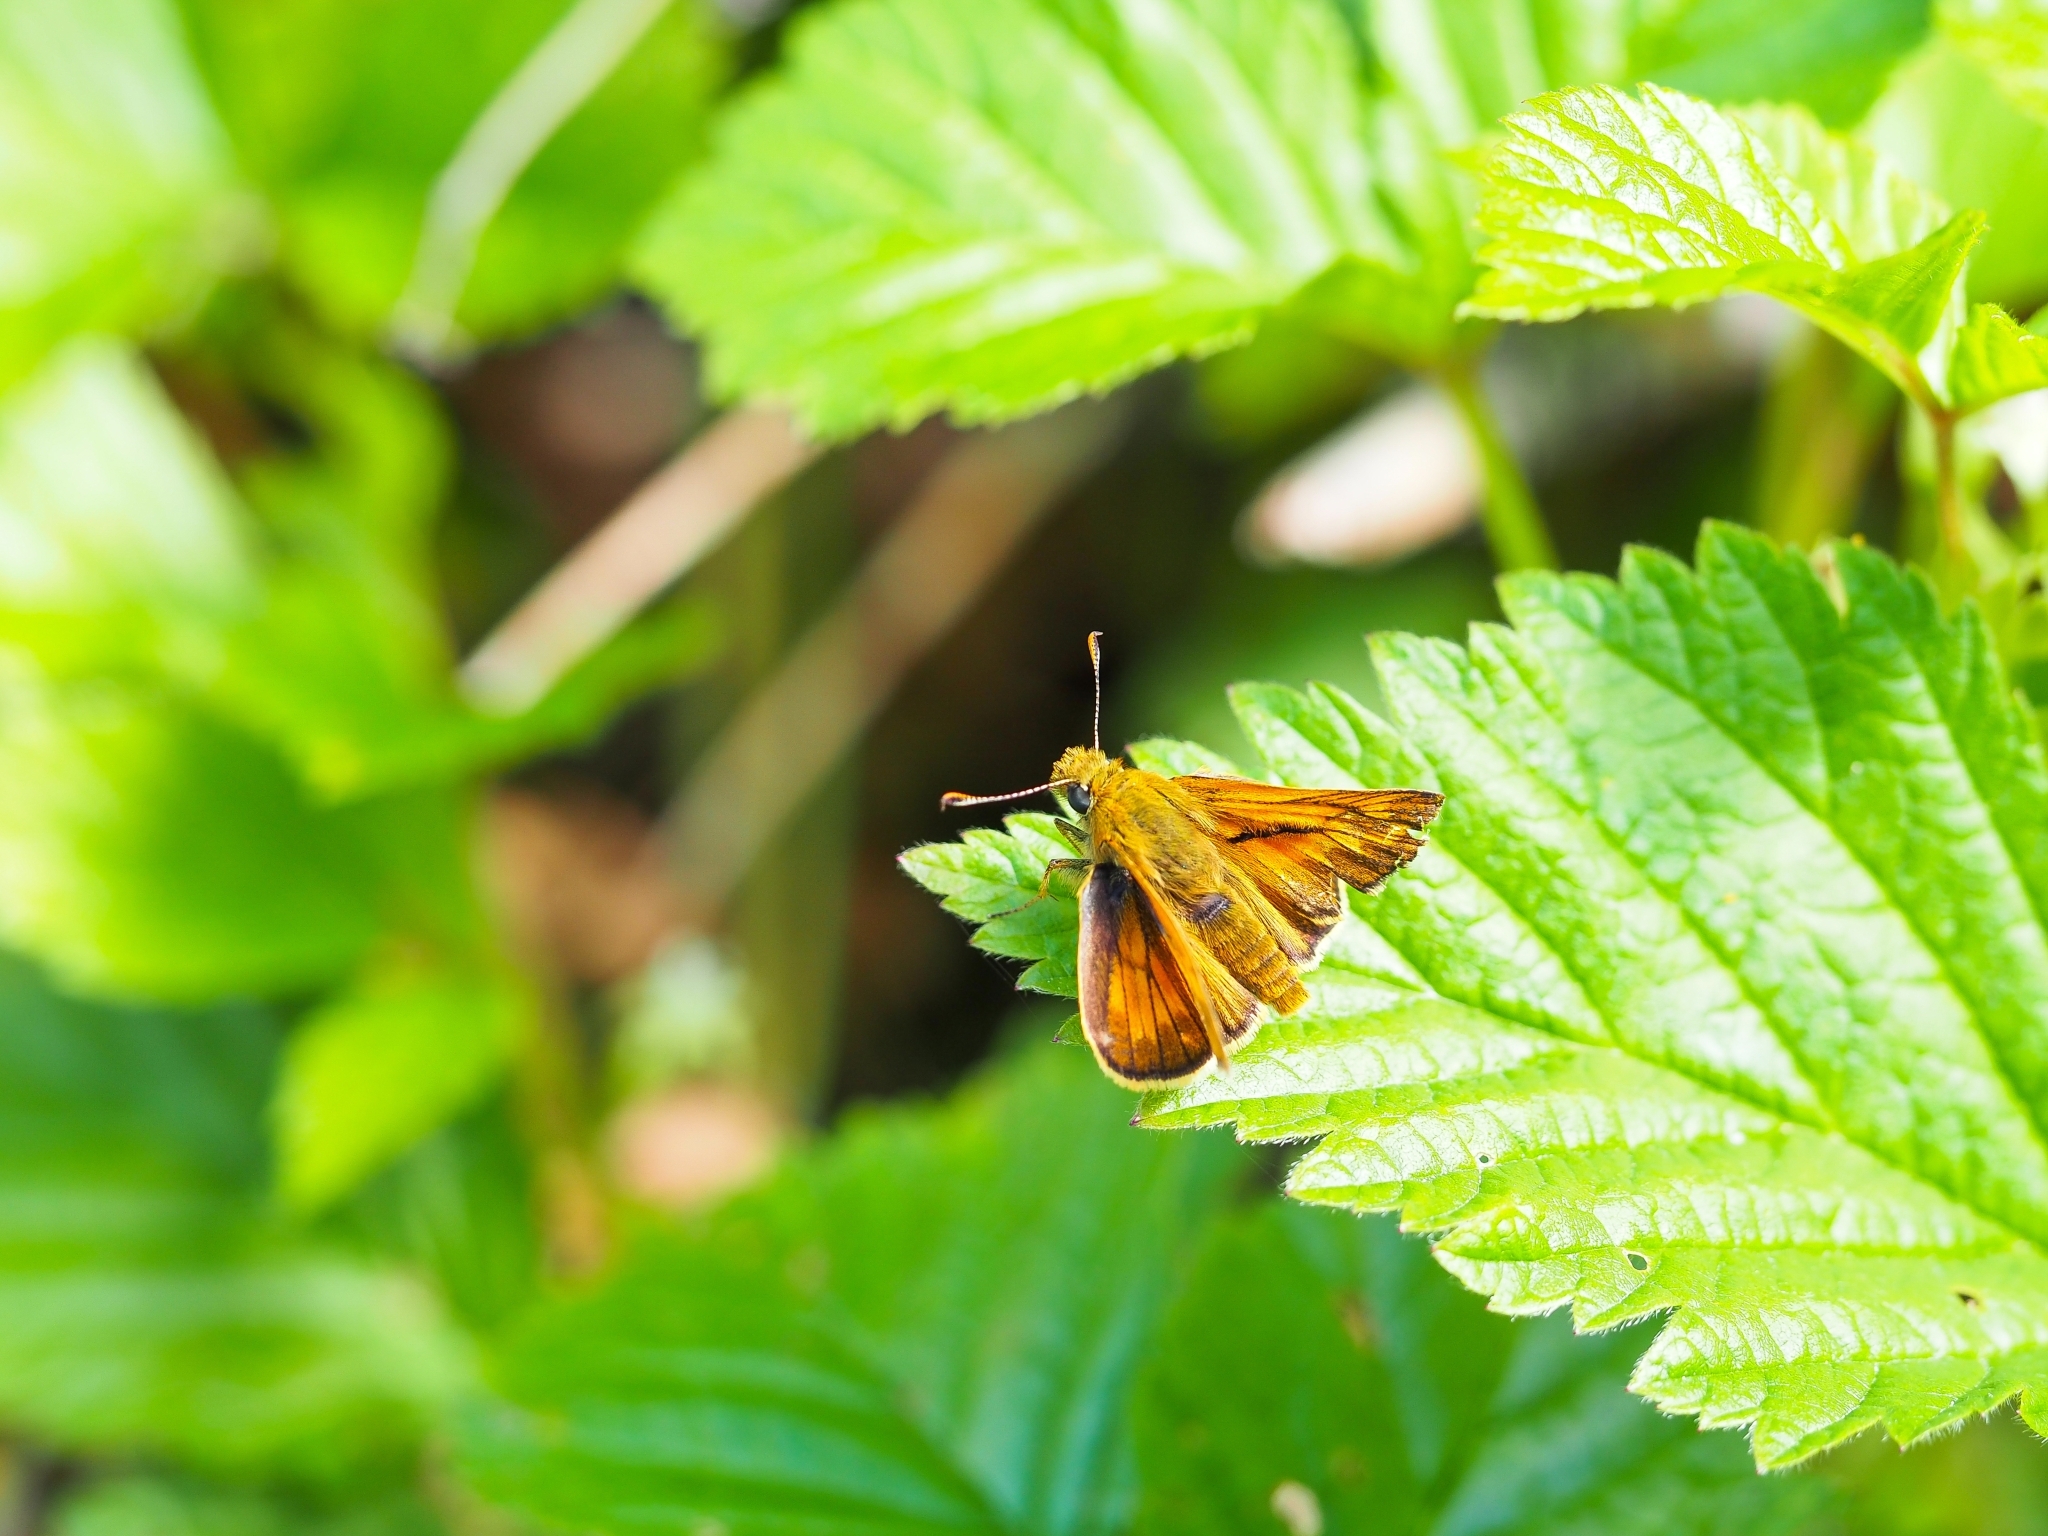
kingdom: Animalia
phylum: Arthropoda
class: Insecta
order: Lepidoptera
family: Hesperiidae
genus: Ochlodes
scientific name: Ochlodes venata
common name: Large skipper
